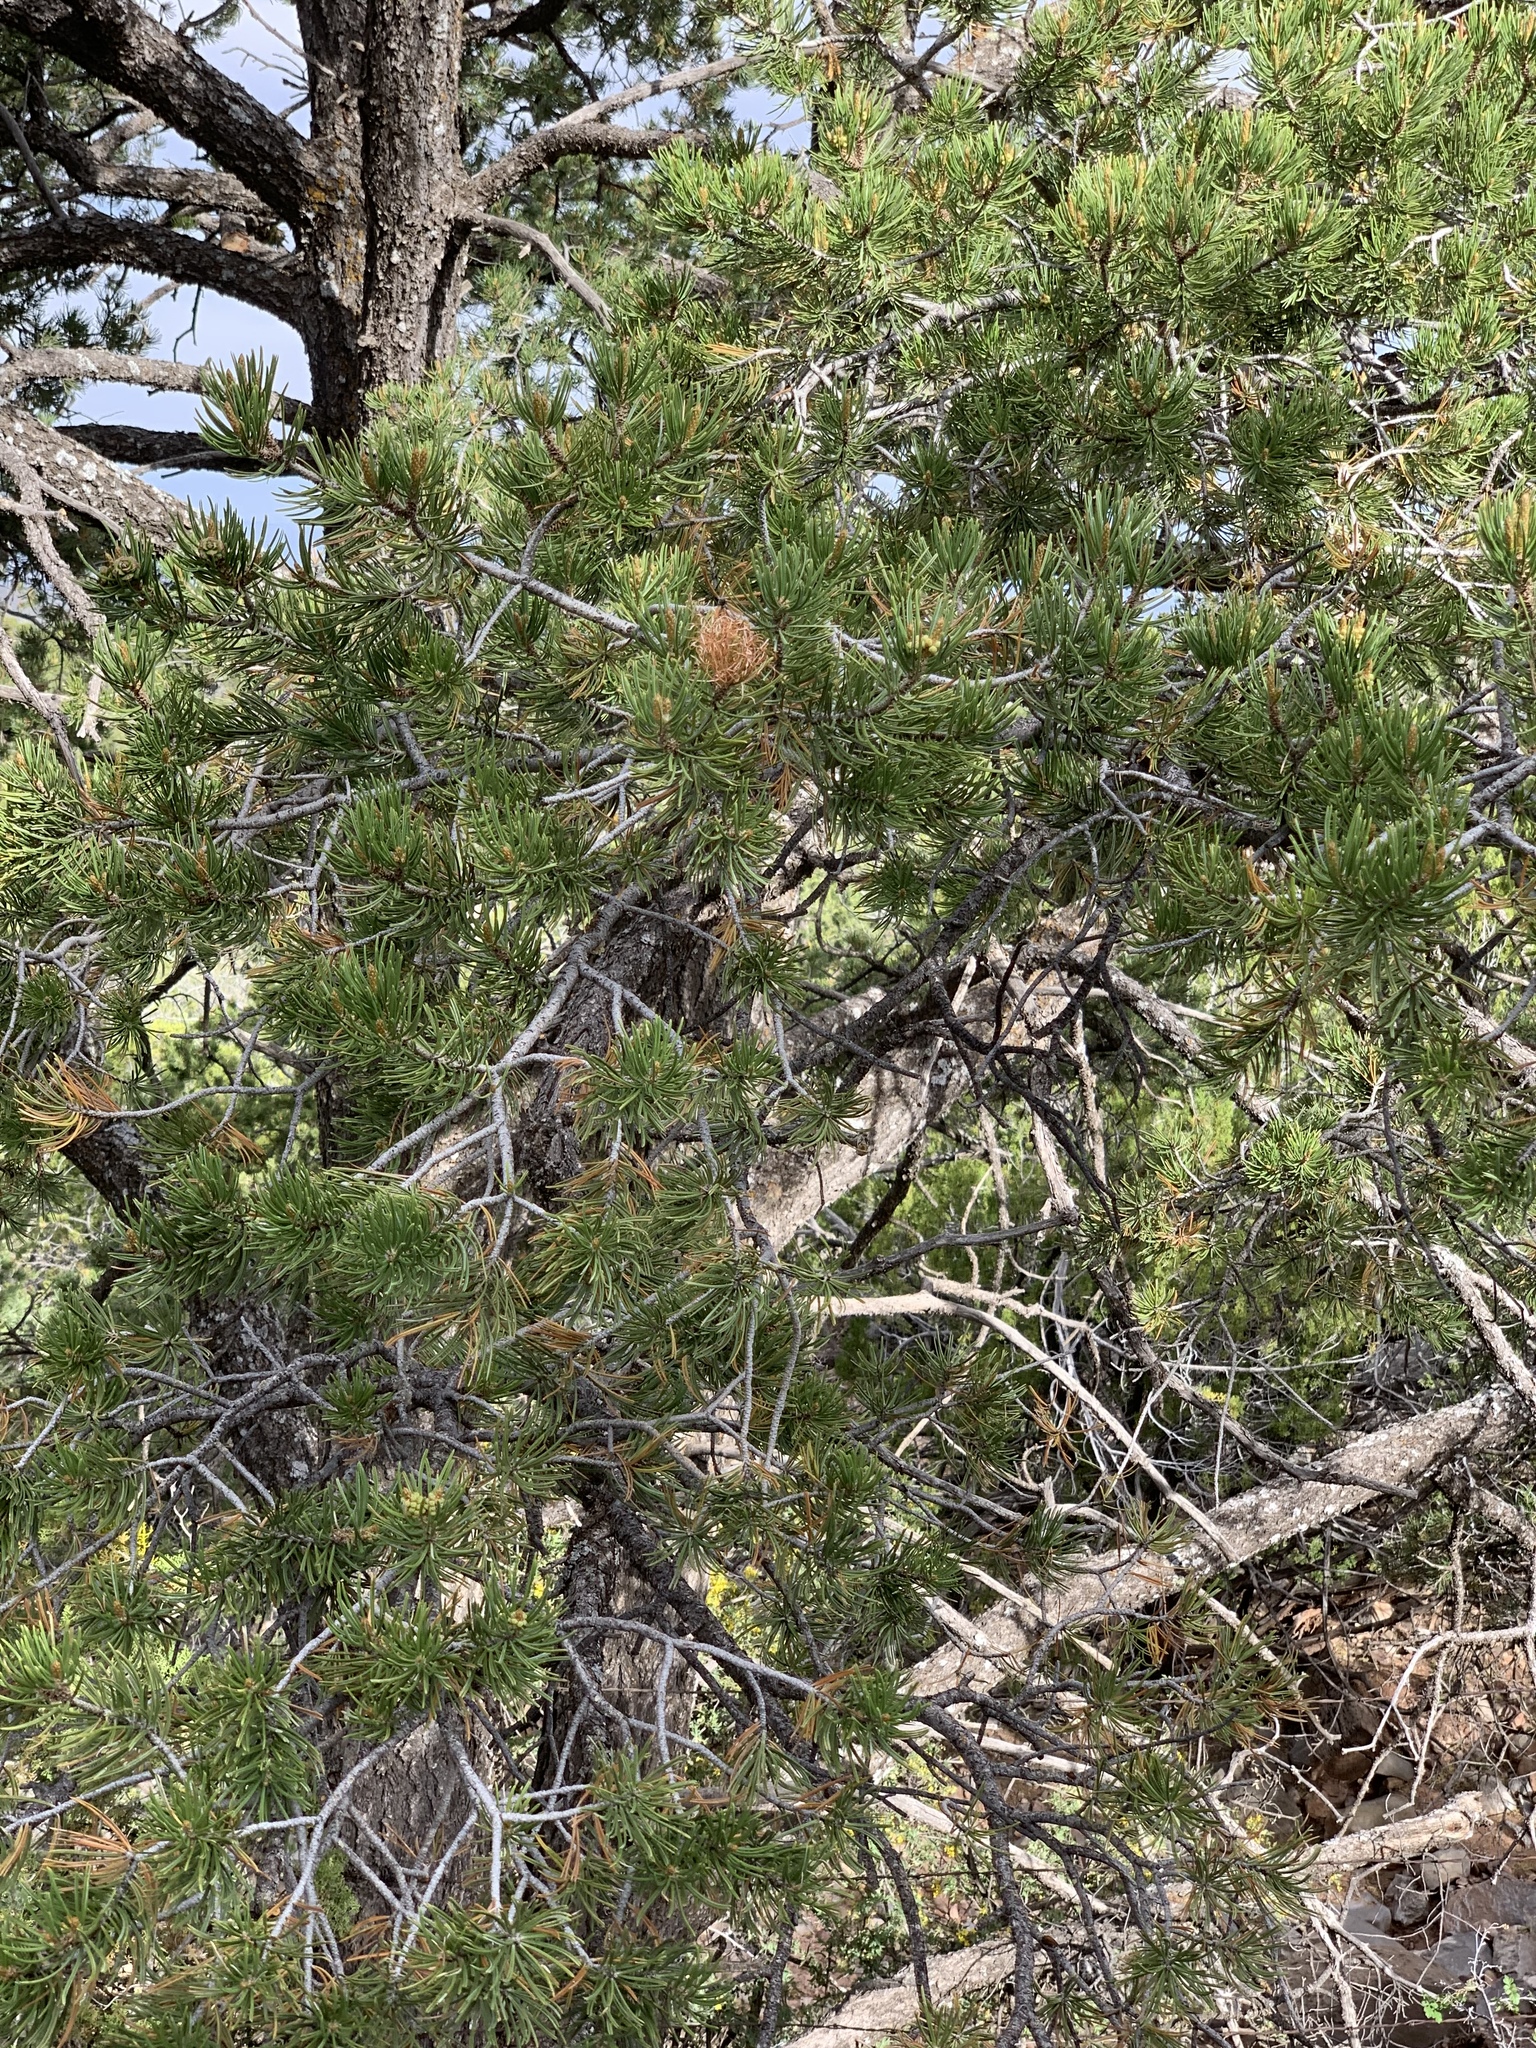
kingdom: Plantae
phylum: Tracheophyta
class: Pinopsida
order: Pinales
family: Pinaceae
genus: Pinus
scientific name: Pinus edulis
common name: Colorado pinyon
